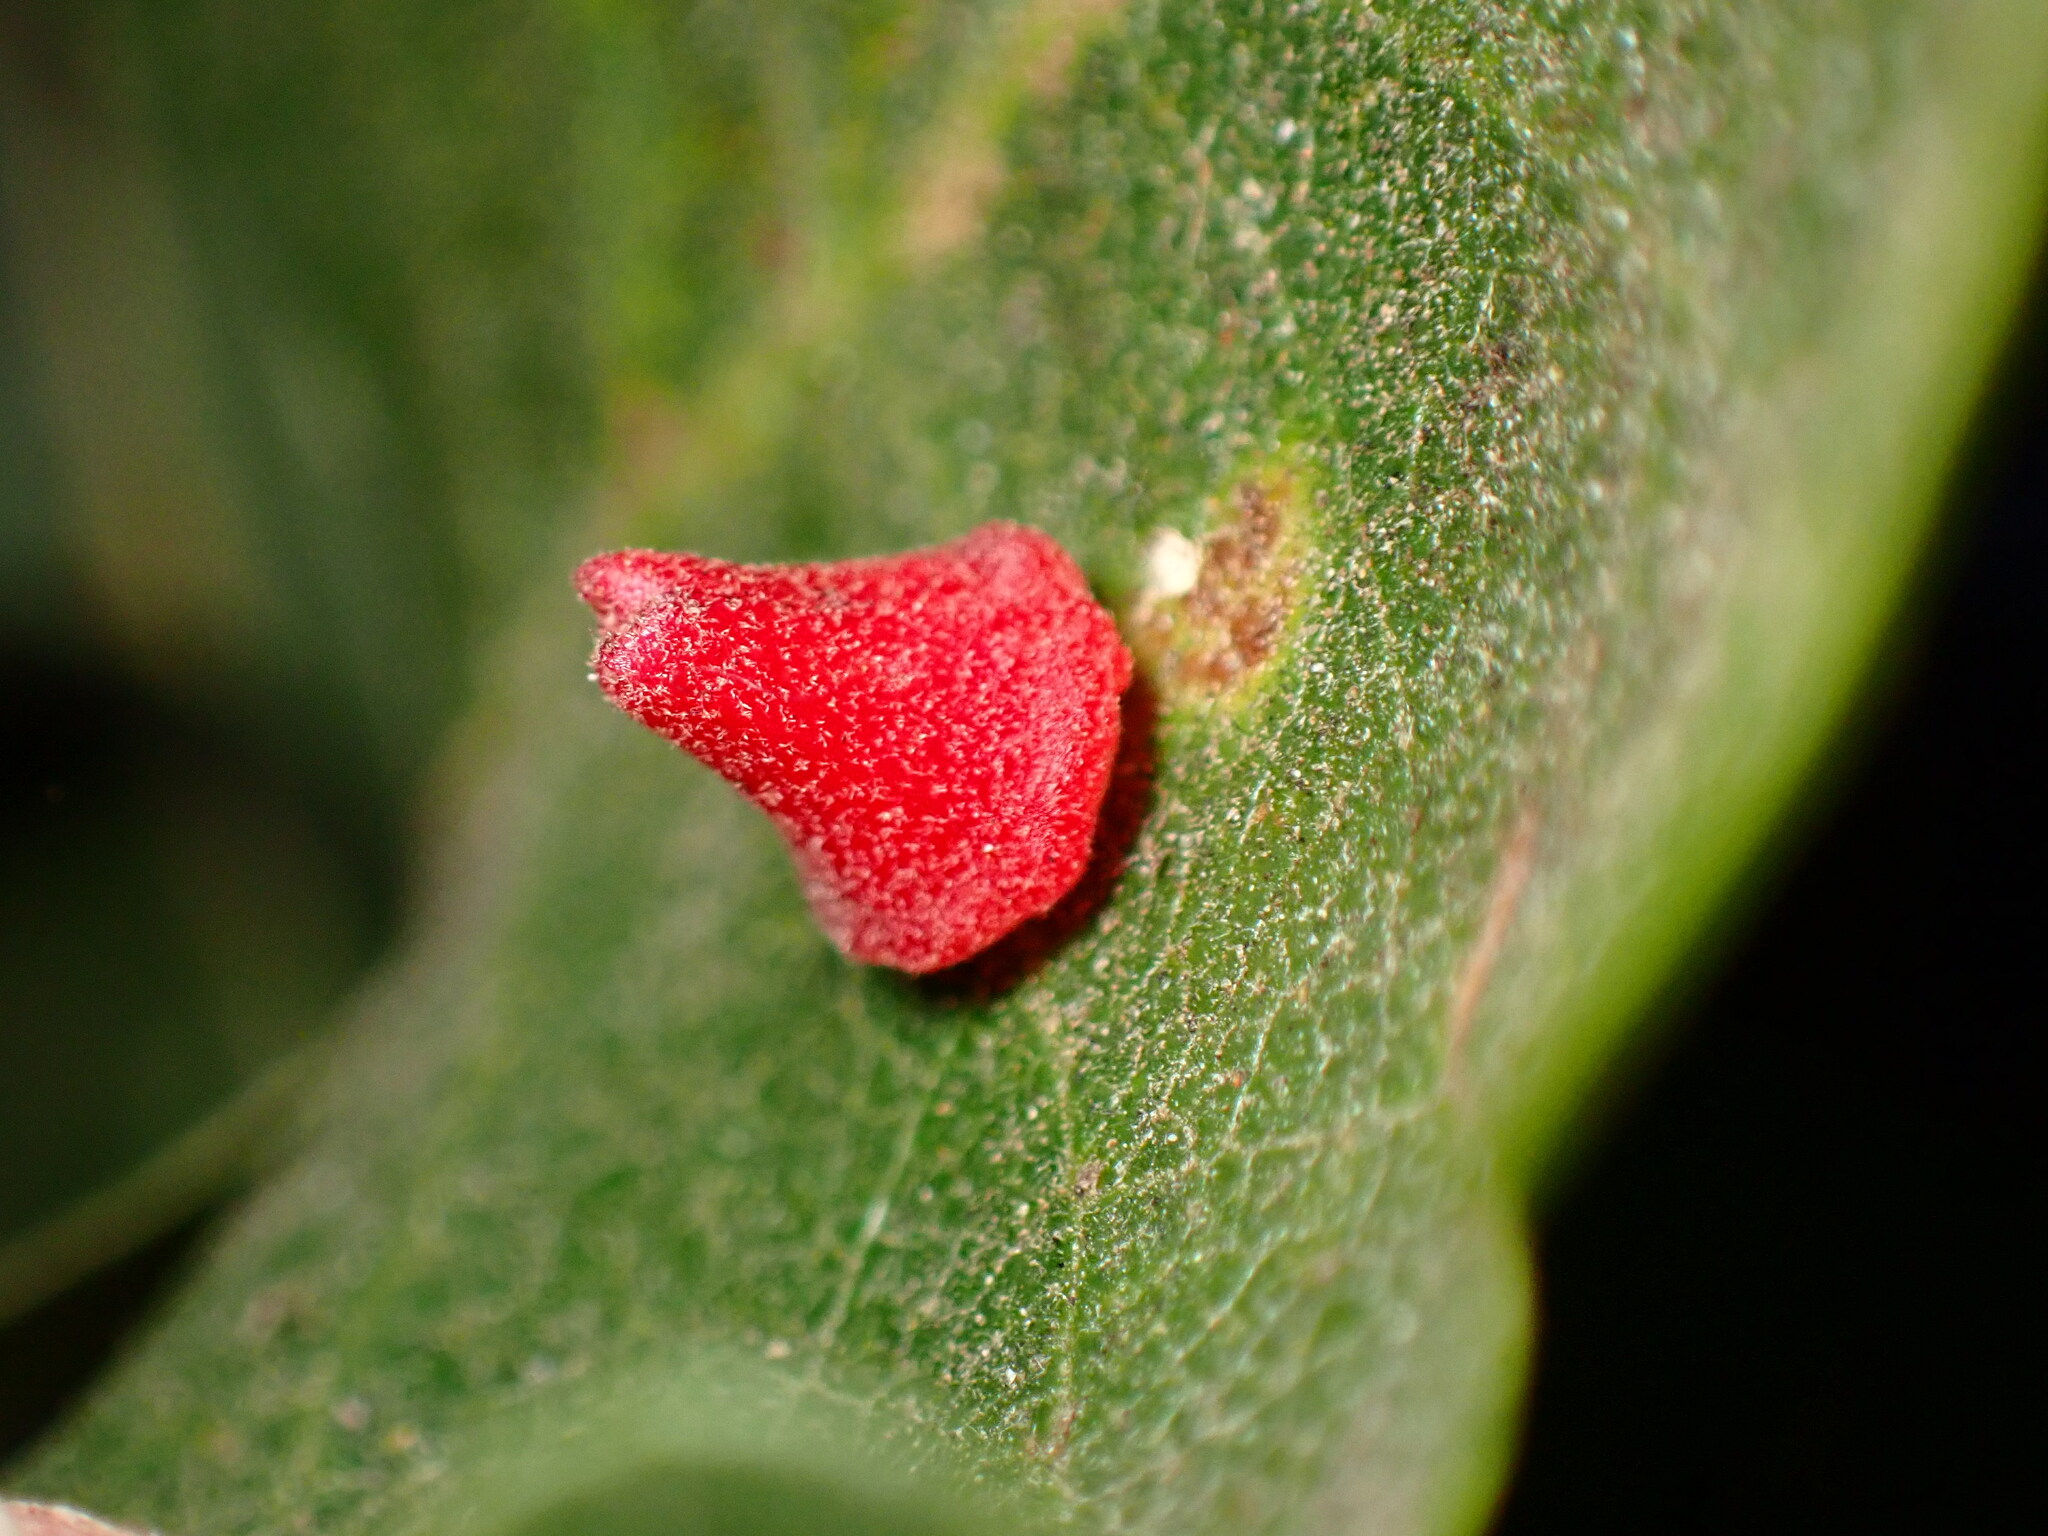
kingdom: Animalia
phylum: Arthropoda
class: Insecta
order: Hymenoptera
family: Cynipidae
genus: Andricus
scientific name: Andricus
